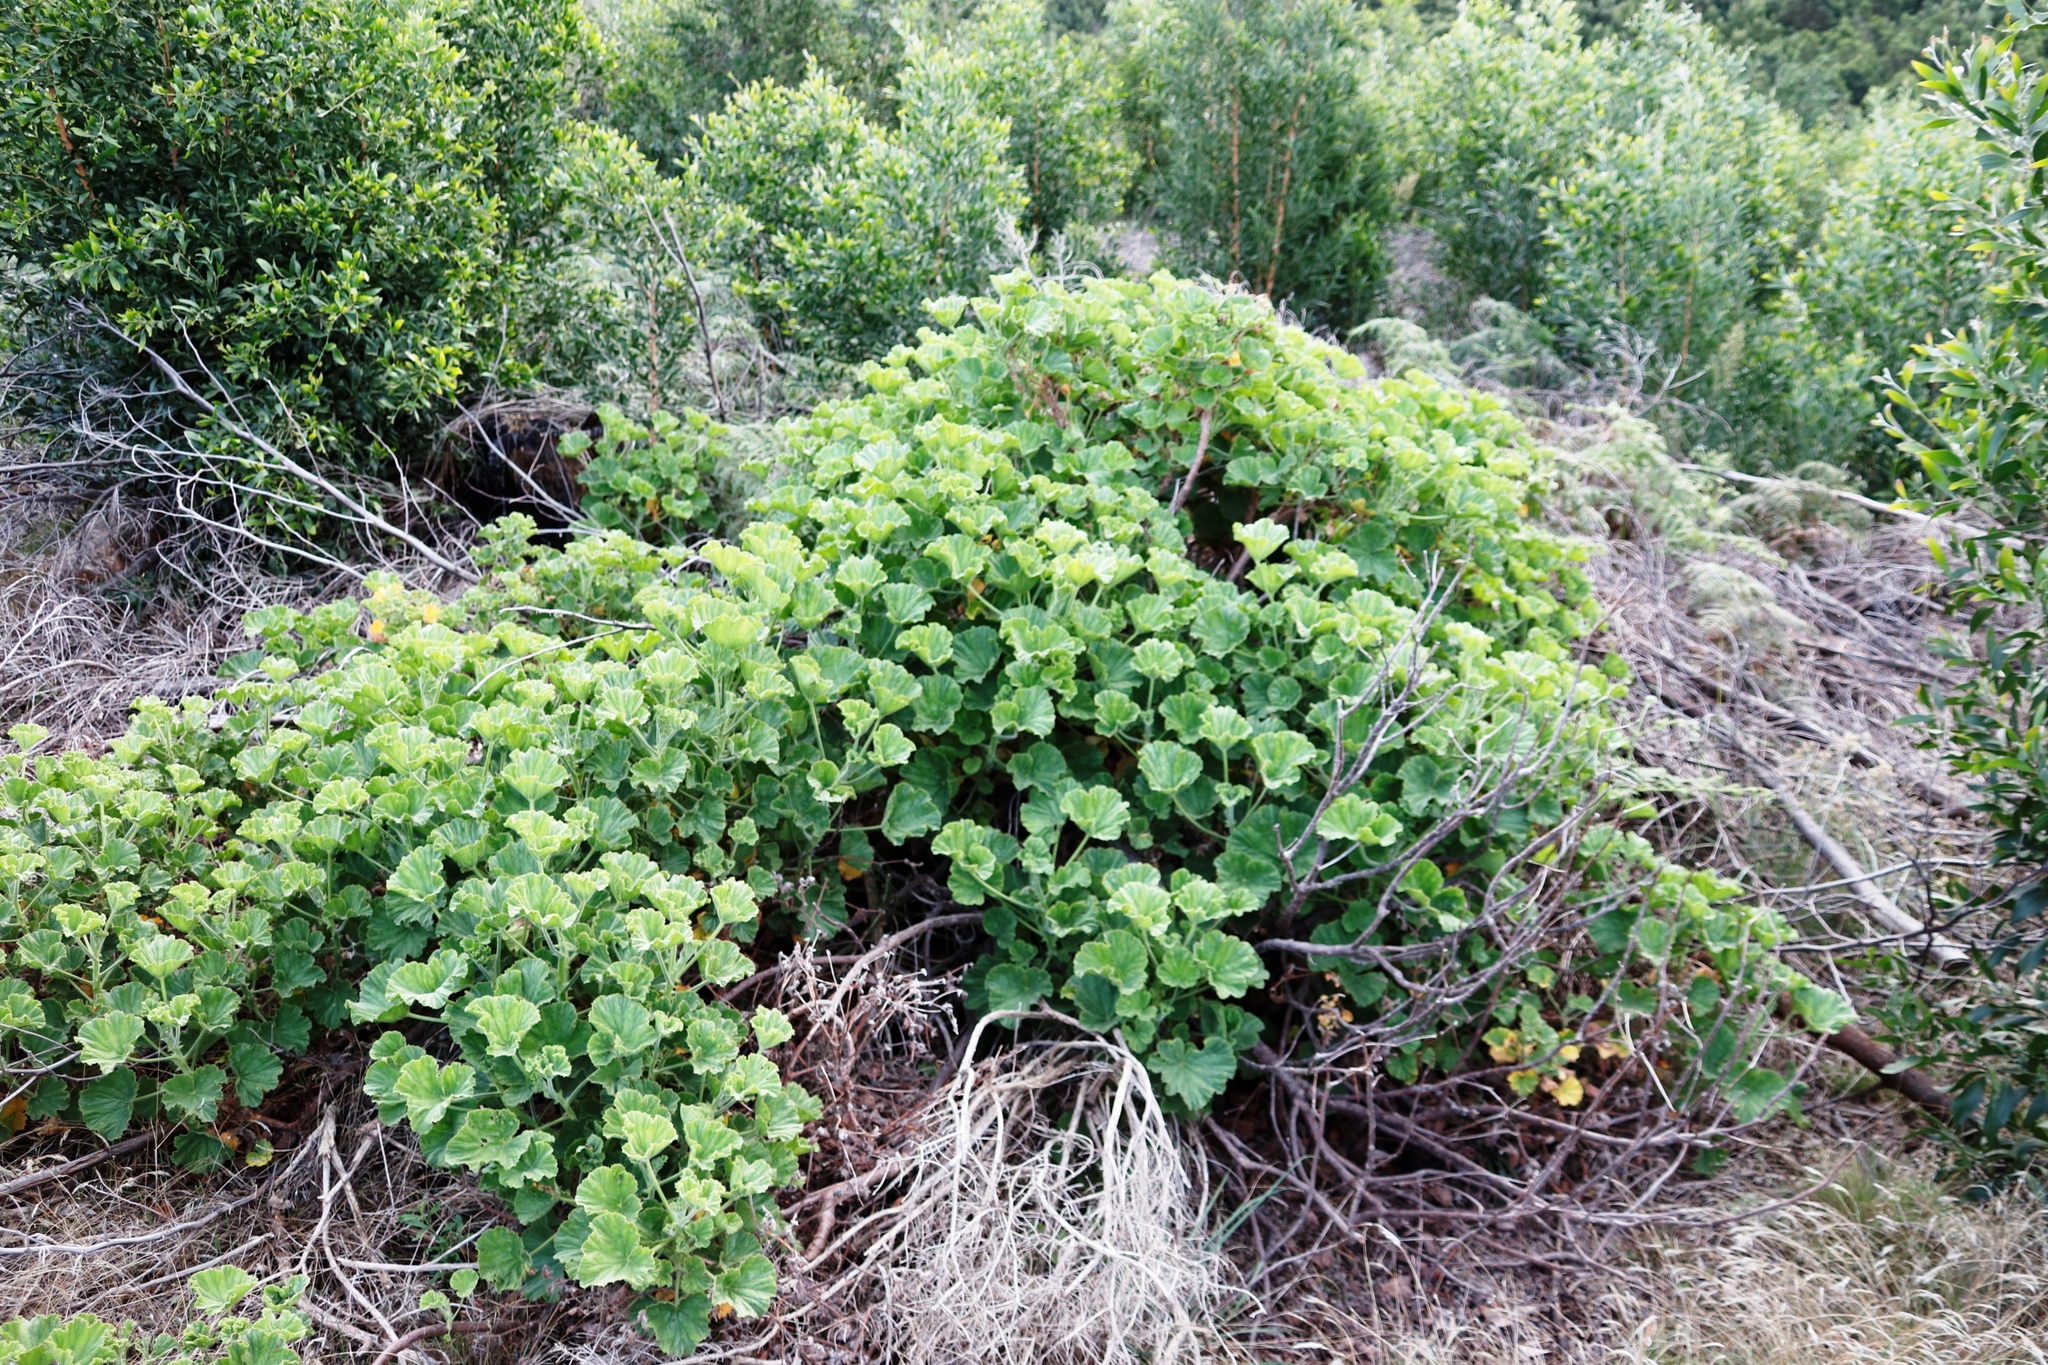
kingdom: Plantae
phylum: Tracheophyta
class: Magnoliopsida
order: Geraniales
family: Geraniaceae
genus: Pelargonium
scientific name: Pelargonium cucullatum
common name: Tree pelargonium
